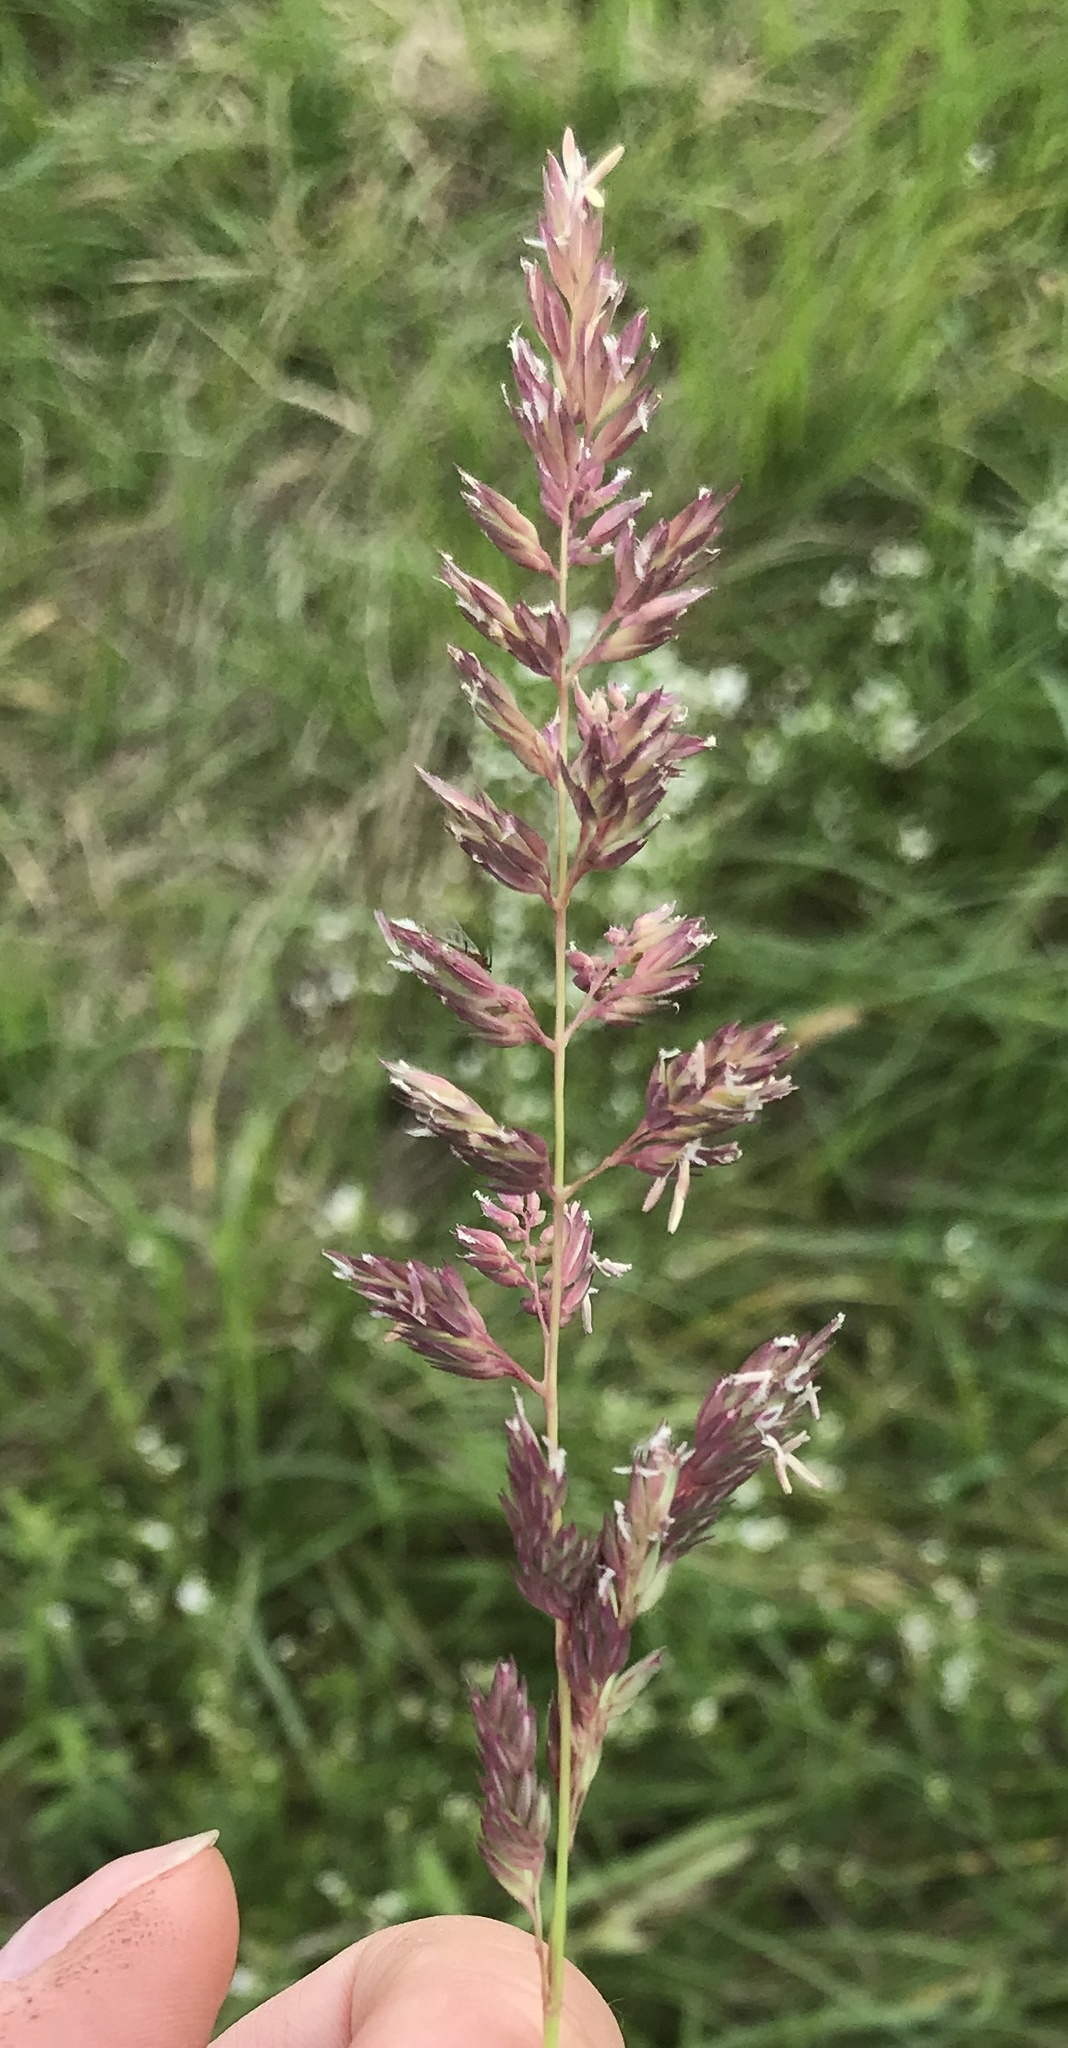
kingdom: Plantae
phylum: Tracheophyta
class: Liliopsida
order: Poales
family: Poaceae
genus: Phalaris
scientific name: Phalaris arundinacea
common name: Reed canary-grass
